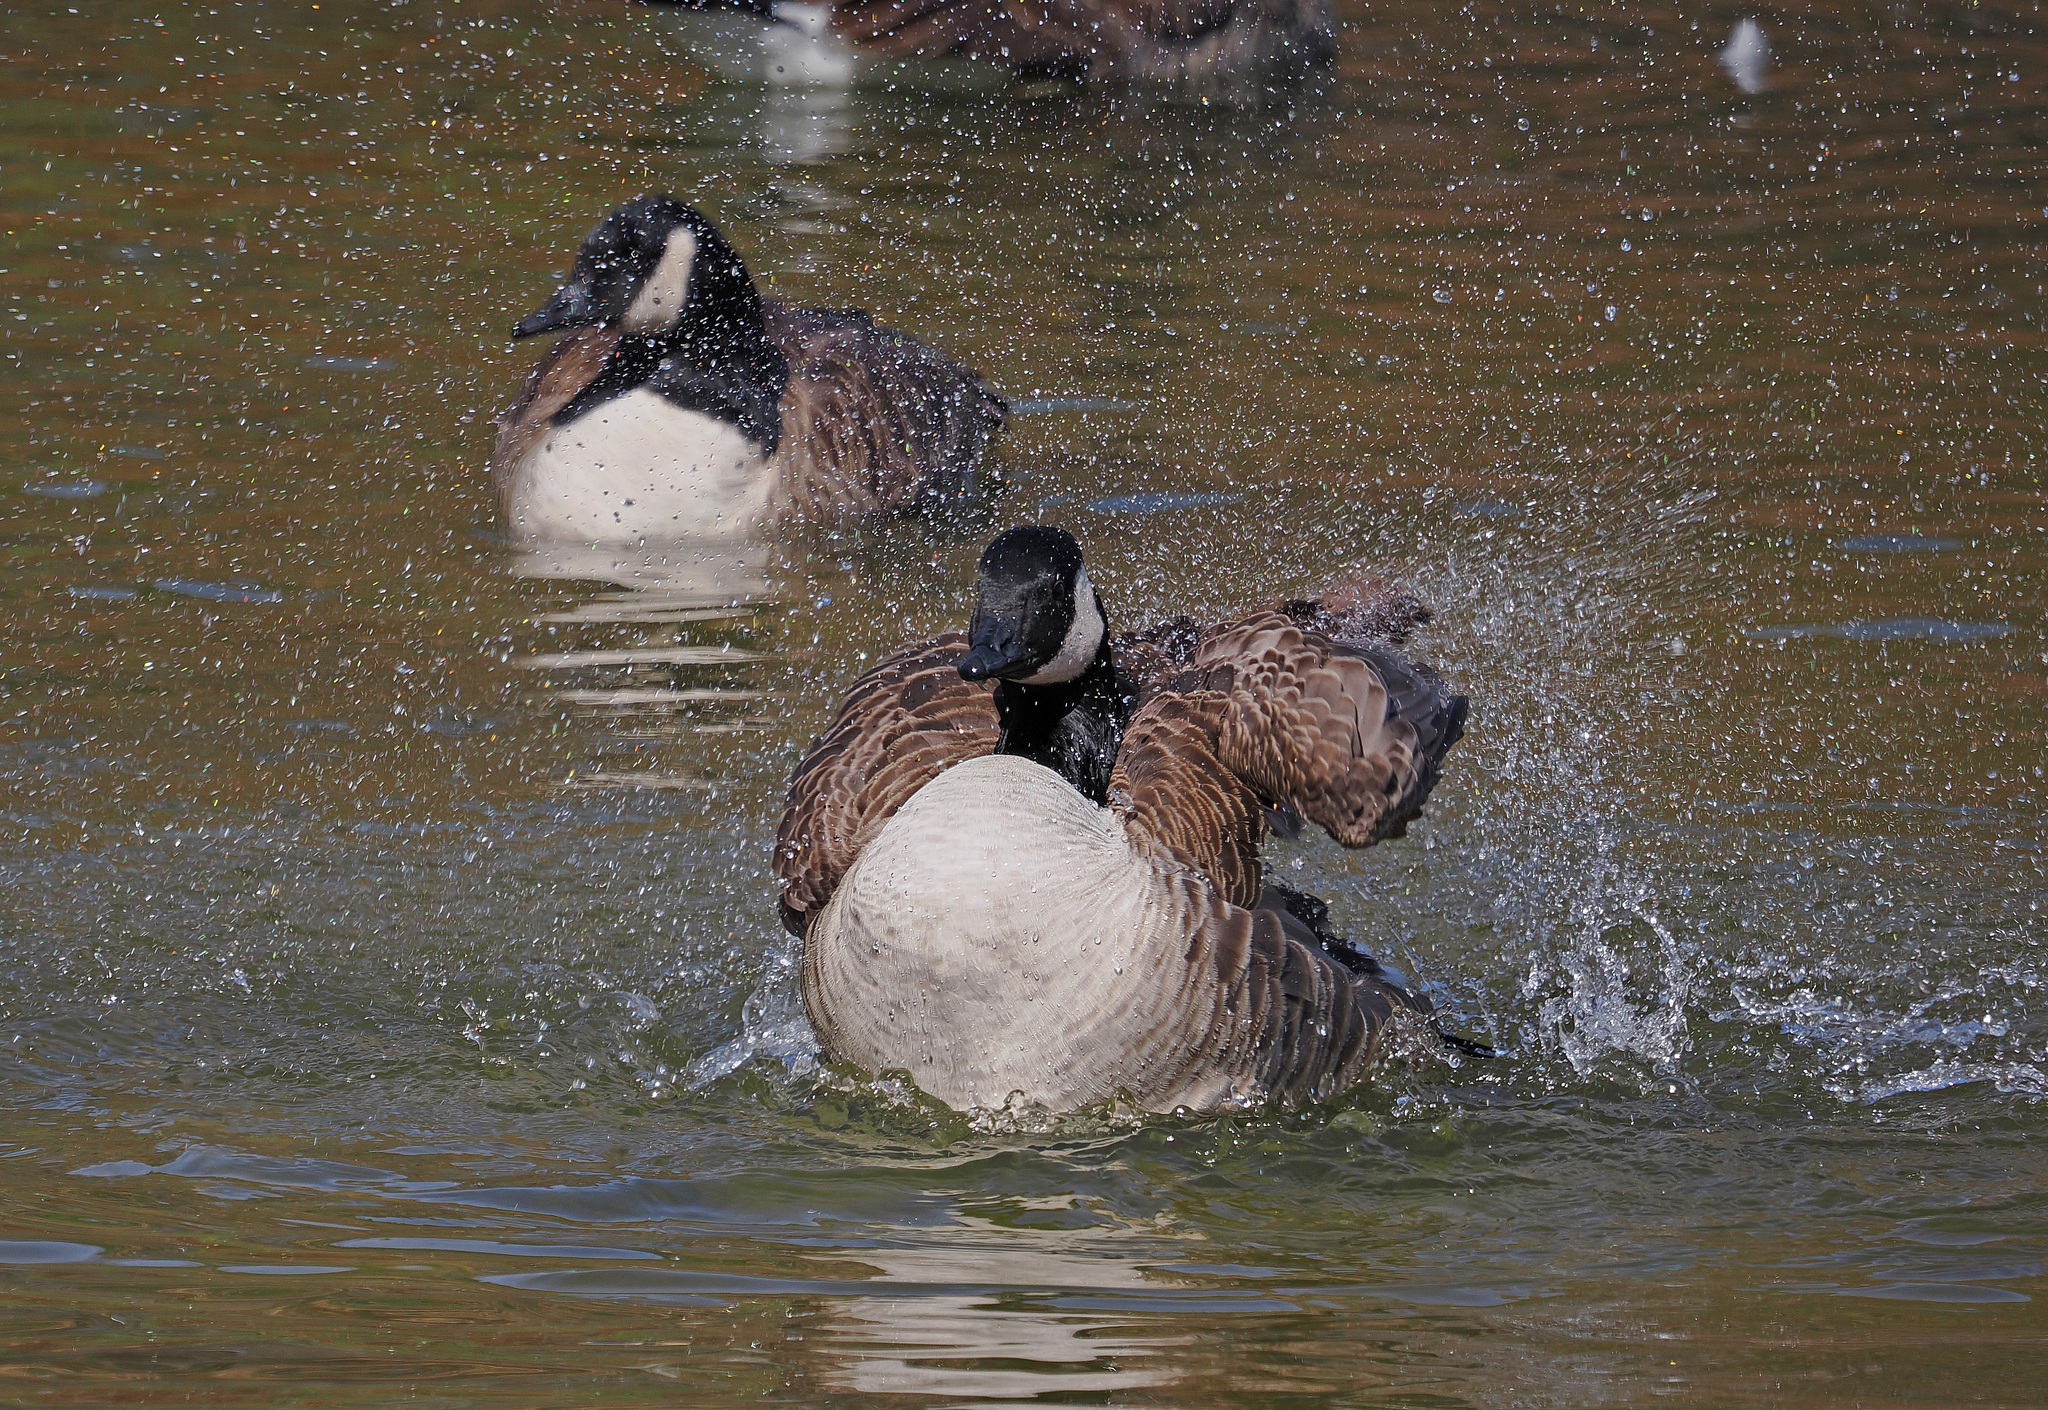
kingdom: Animalia
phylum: Chordata
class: Aves
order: Anseriformes
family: Anatidae
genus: Branta
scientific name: Branta canadensis
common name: Canada goose
